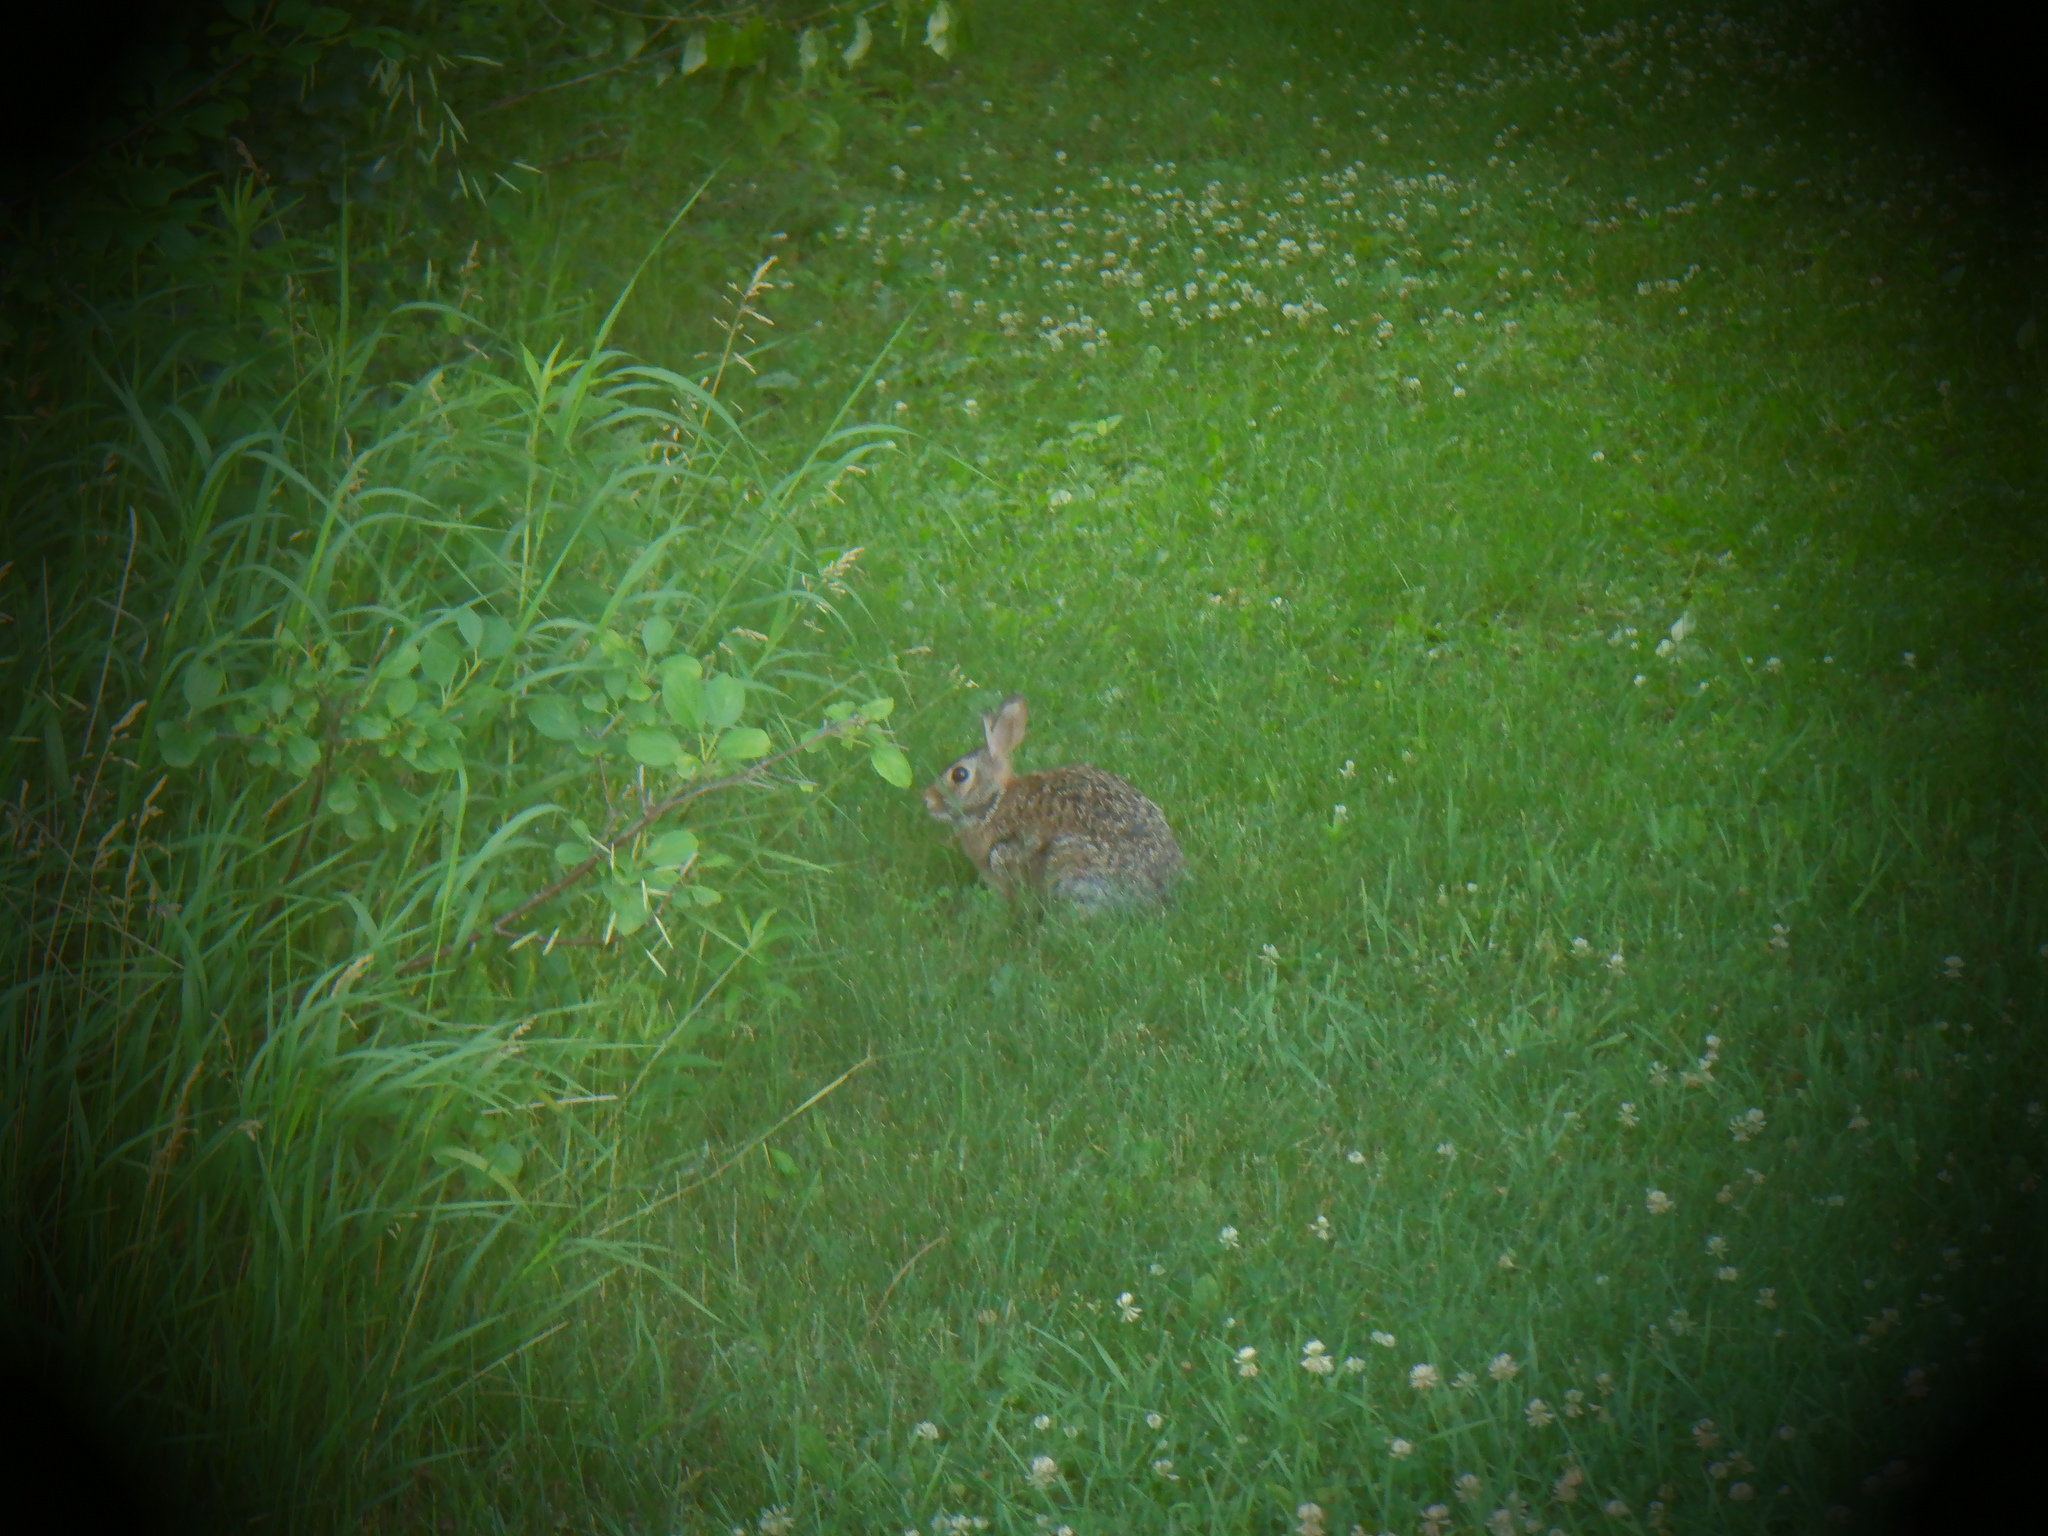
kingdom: Animalia
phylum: Chordata
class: Mammalia
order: Lagomorpha
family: Leporidae
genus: Sylvilagus
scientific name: Sylvilagus floridanus
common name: Eastern cottontail
